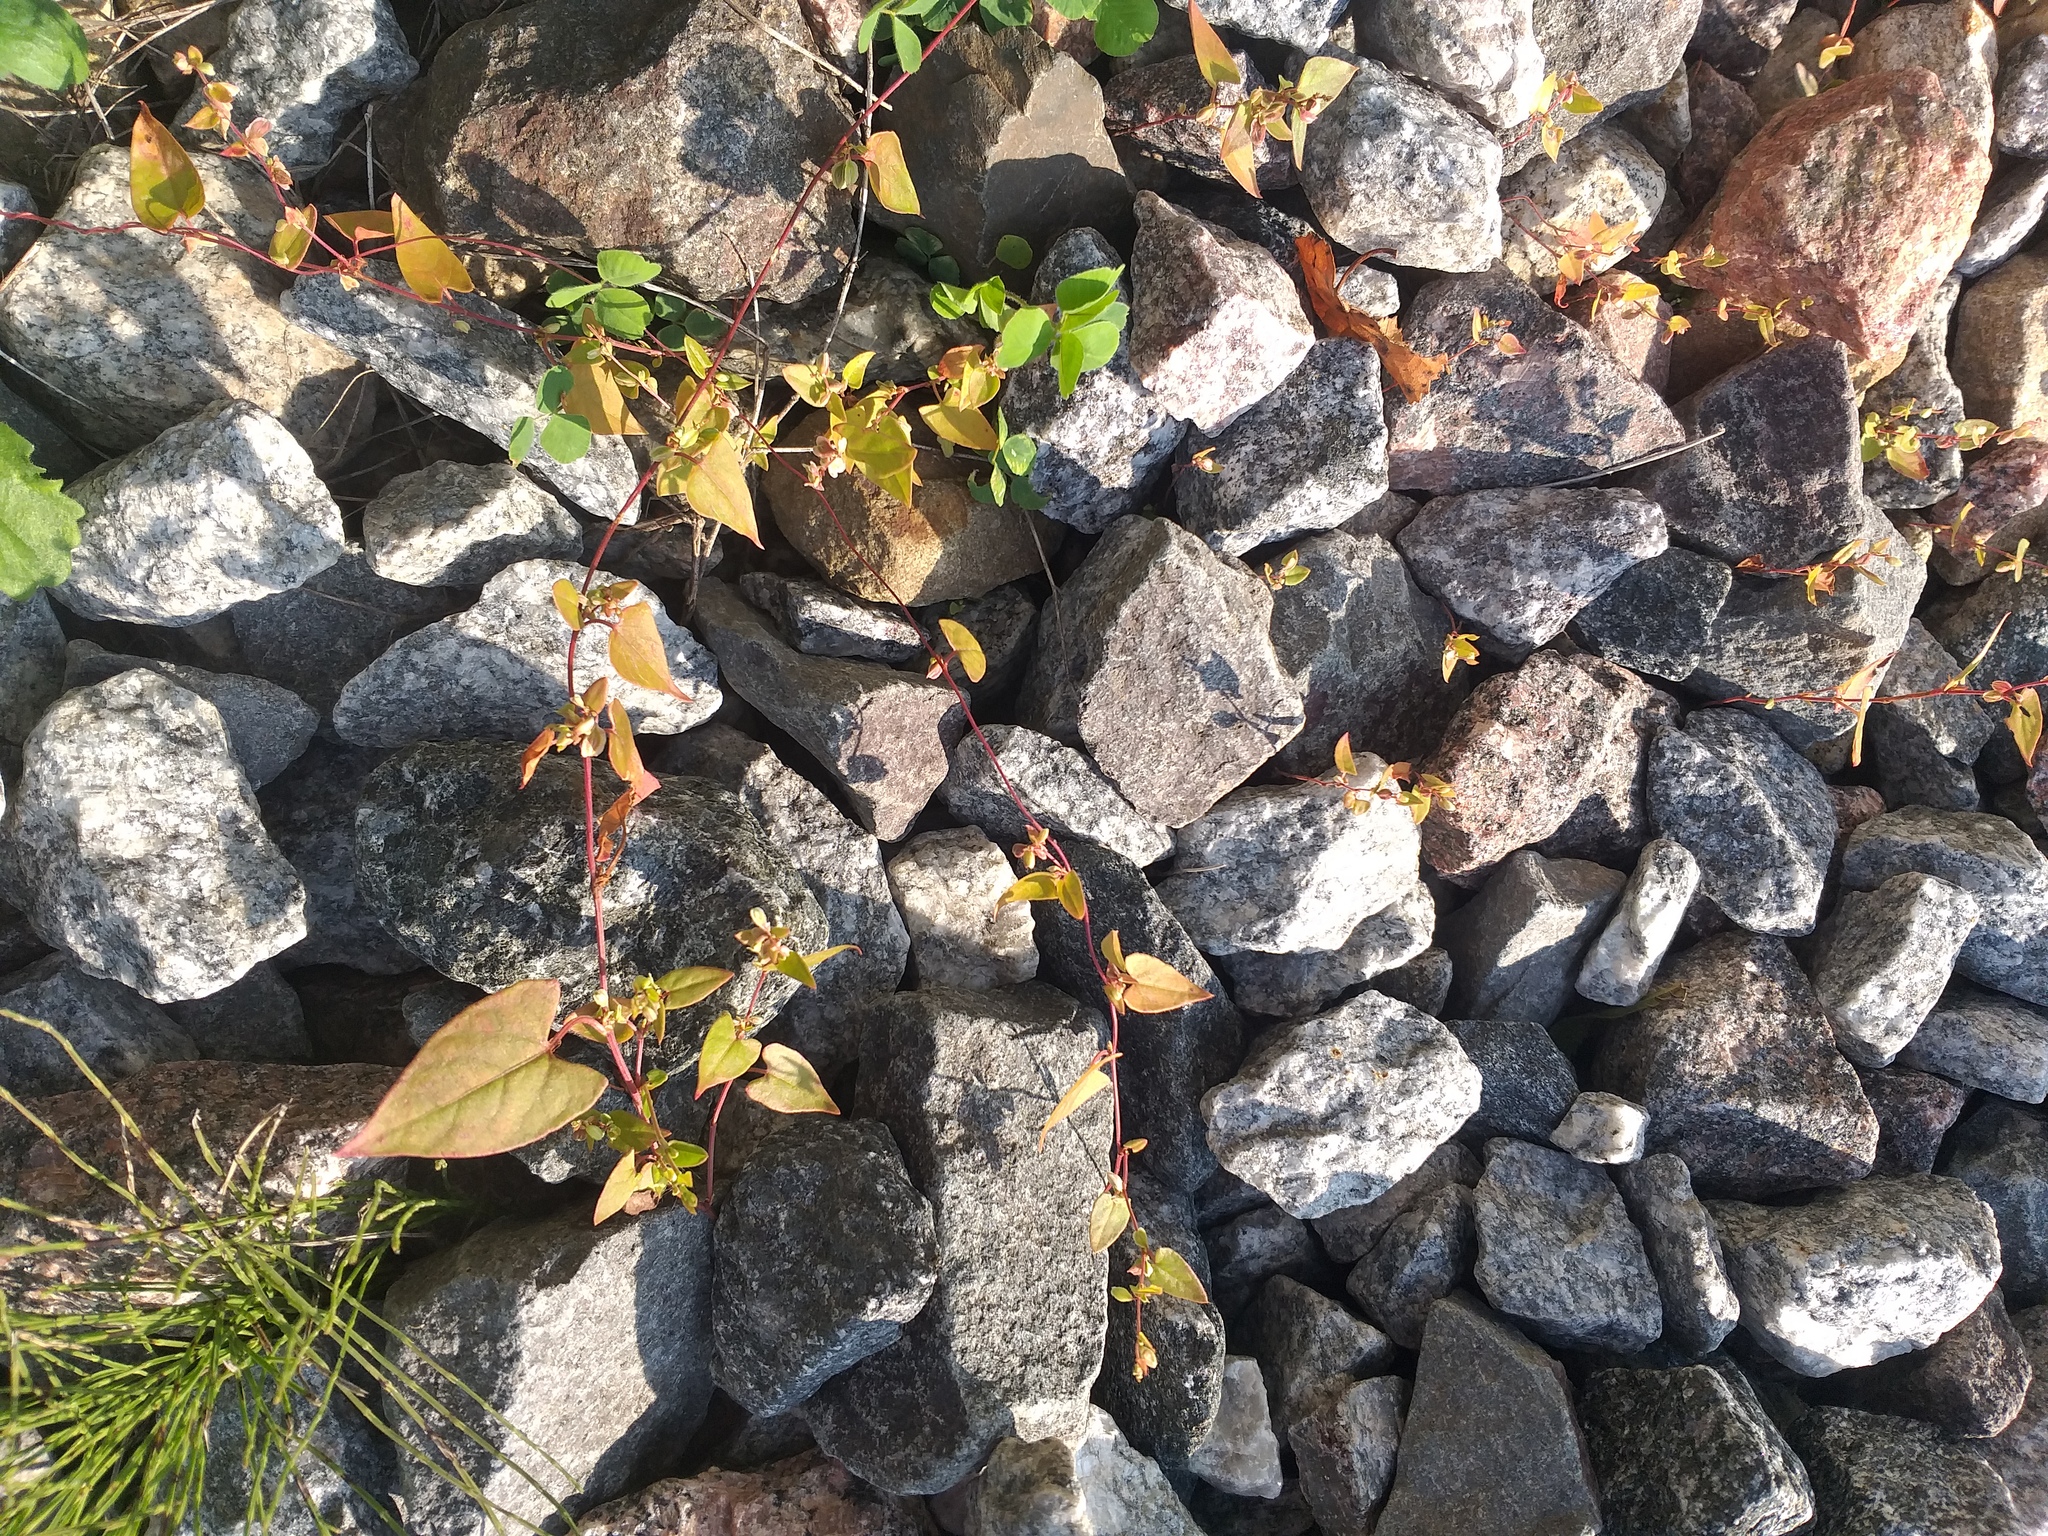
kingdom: Plantae
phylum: Tracheophyta
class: Magnoliopsida
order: Caryophyllales
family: Polygonaceae
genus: Fallopia
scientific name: Fallopia dumetorum
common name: Copse-bindweed
